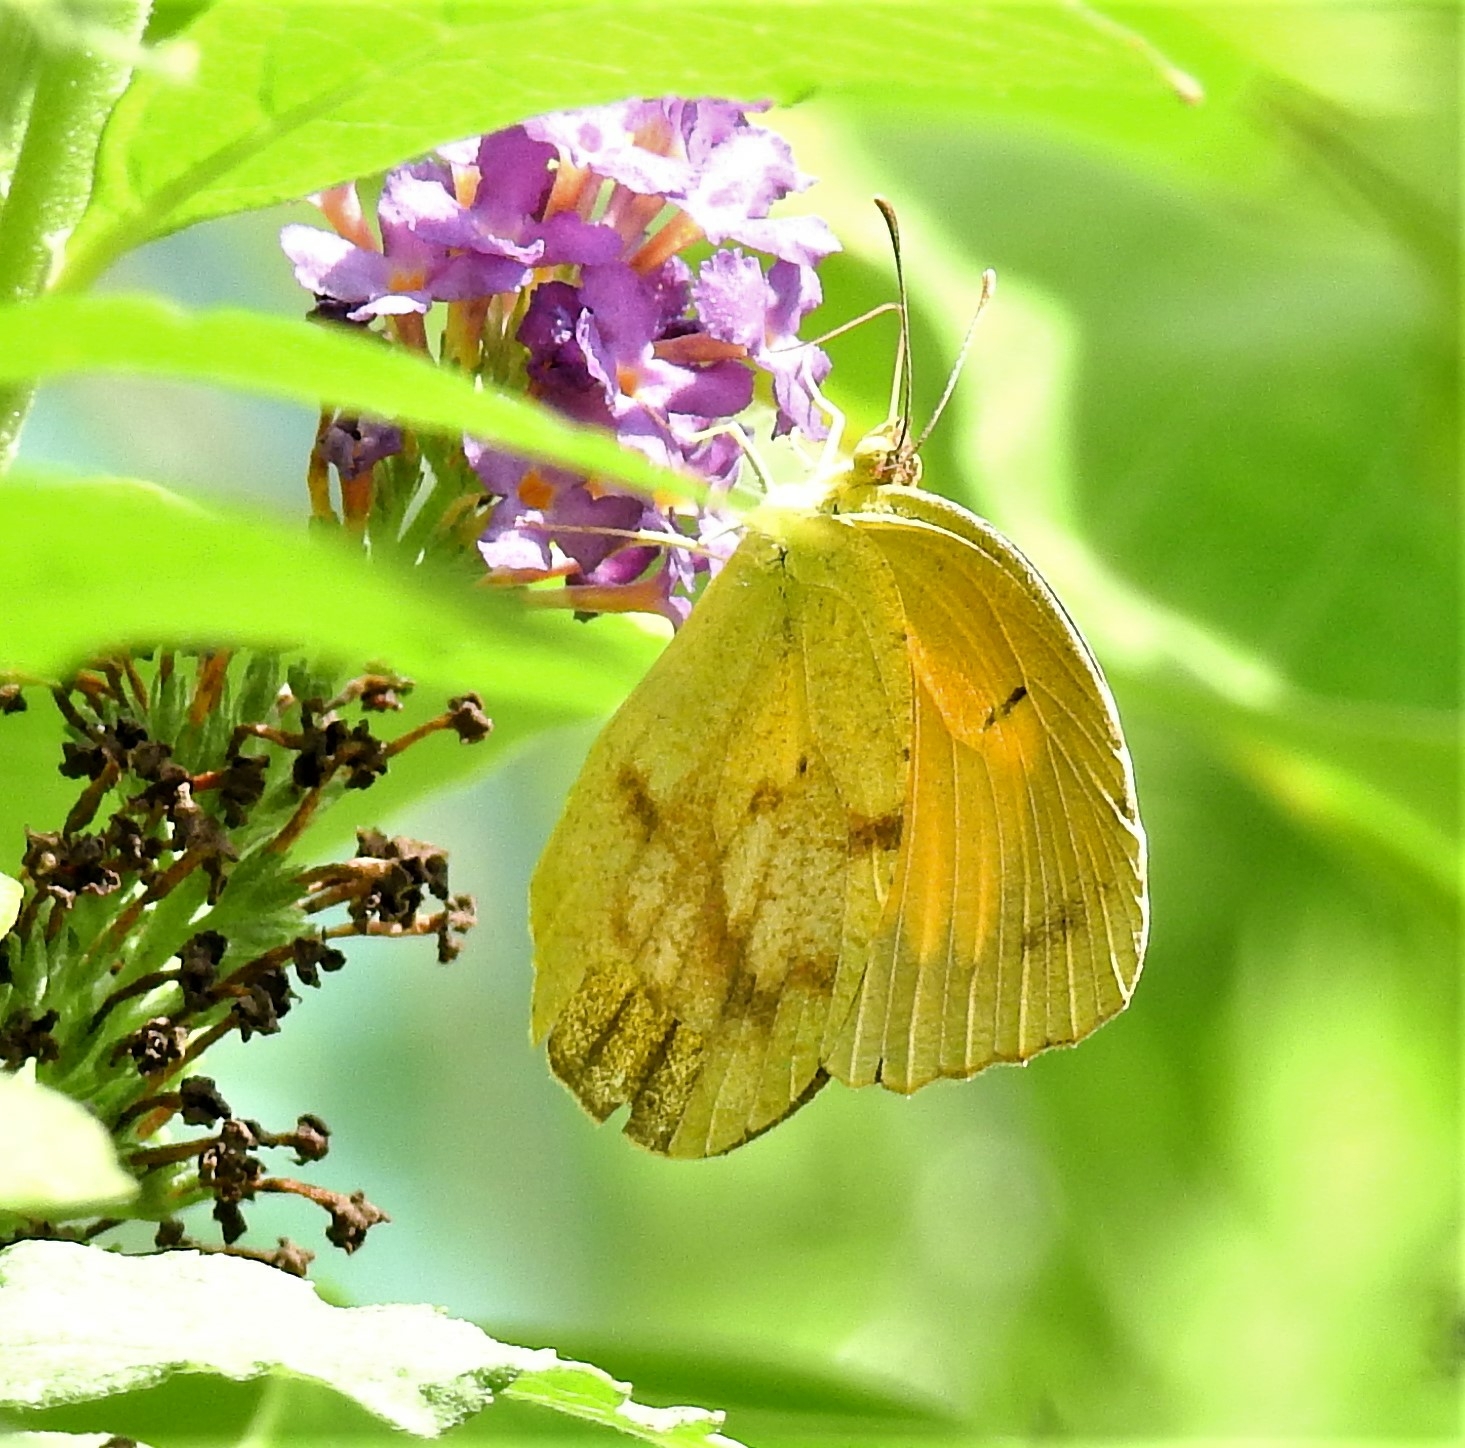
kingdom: Animalia
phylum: Arthropoda
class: Insecta
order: Lepidoptera
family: Pieridae
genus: Abaeis
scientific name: Abaeis nicippe
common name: Sleepy orange
